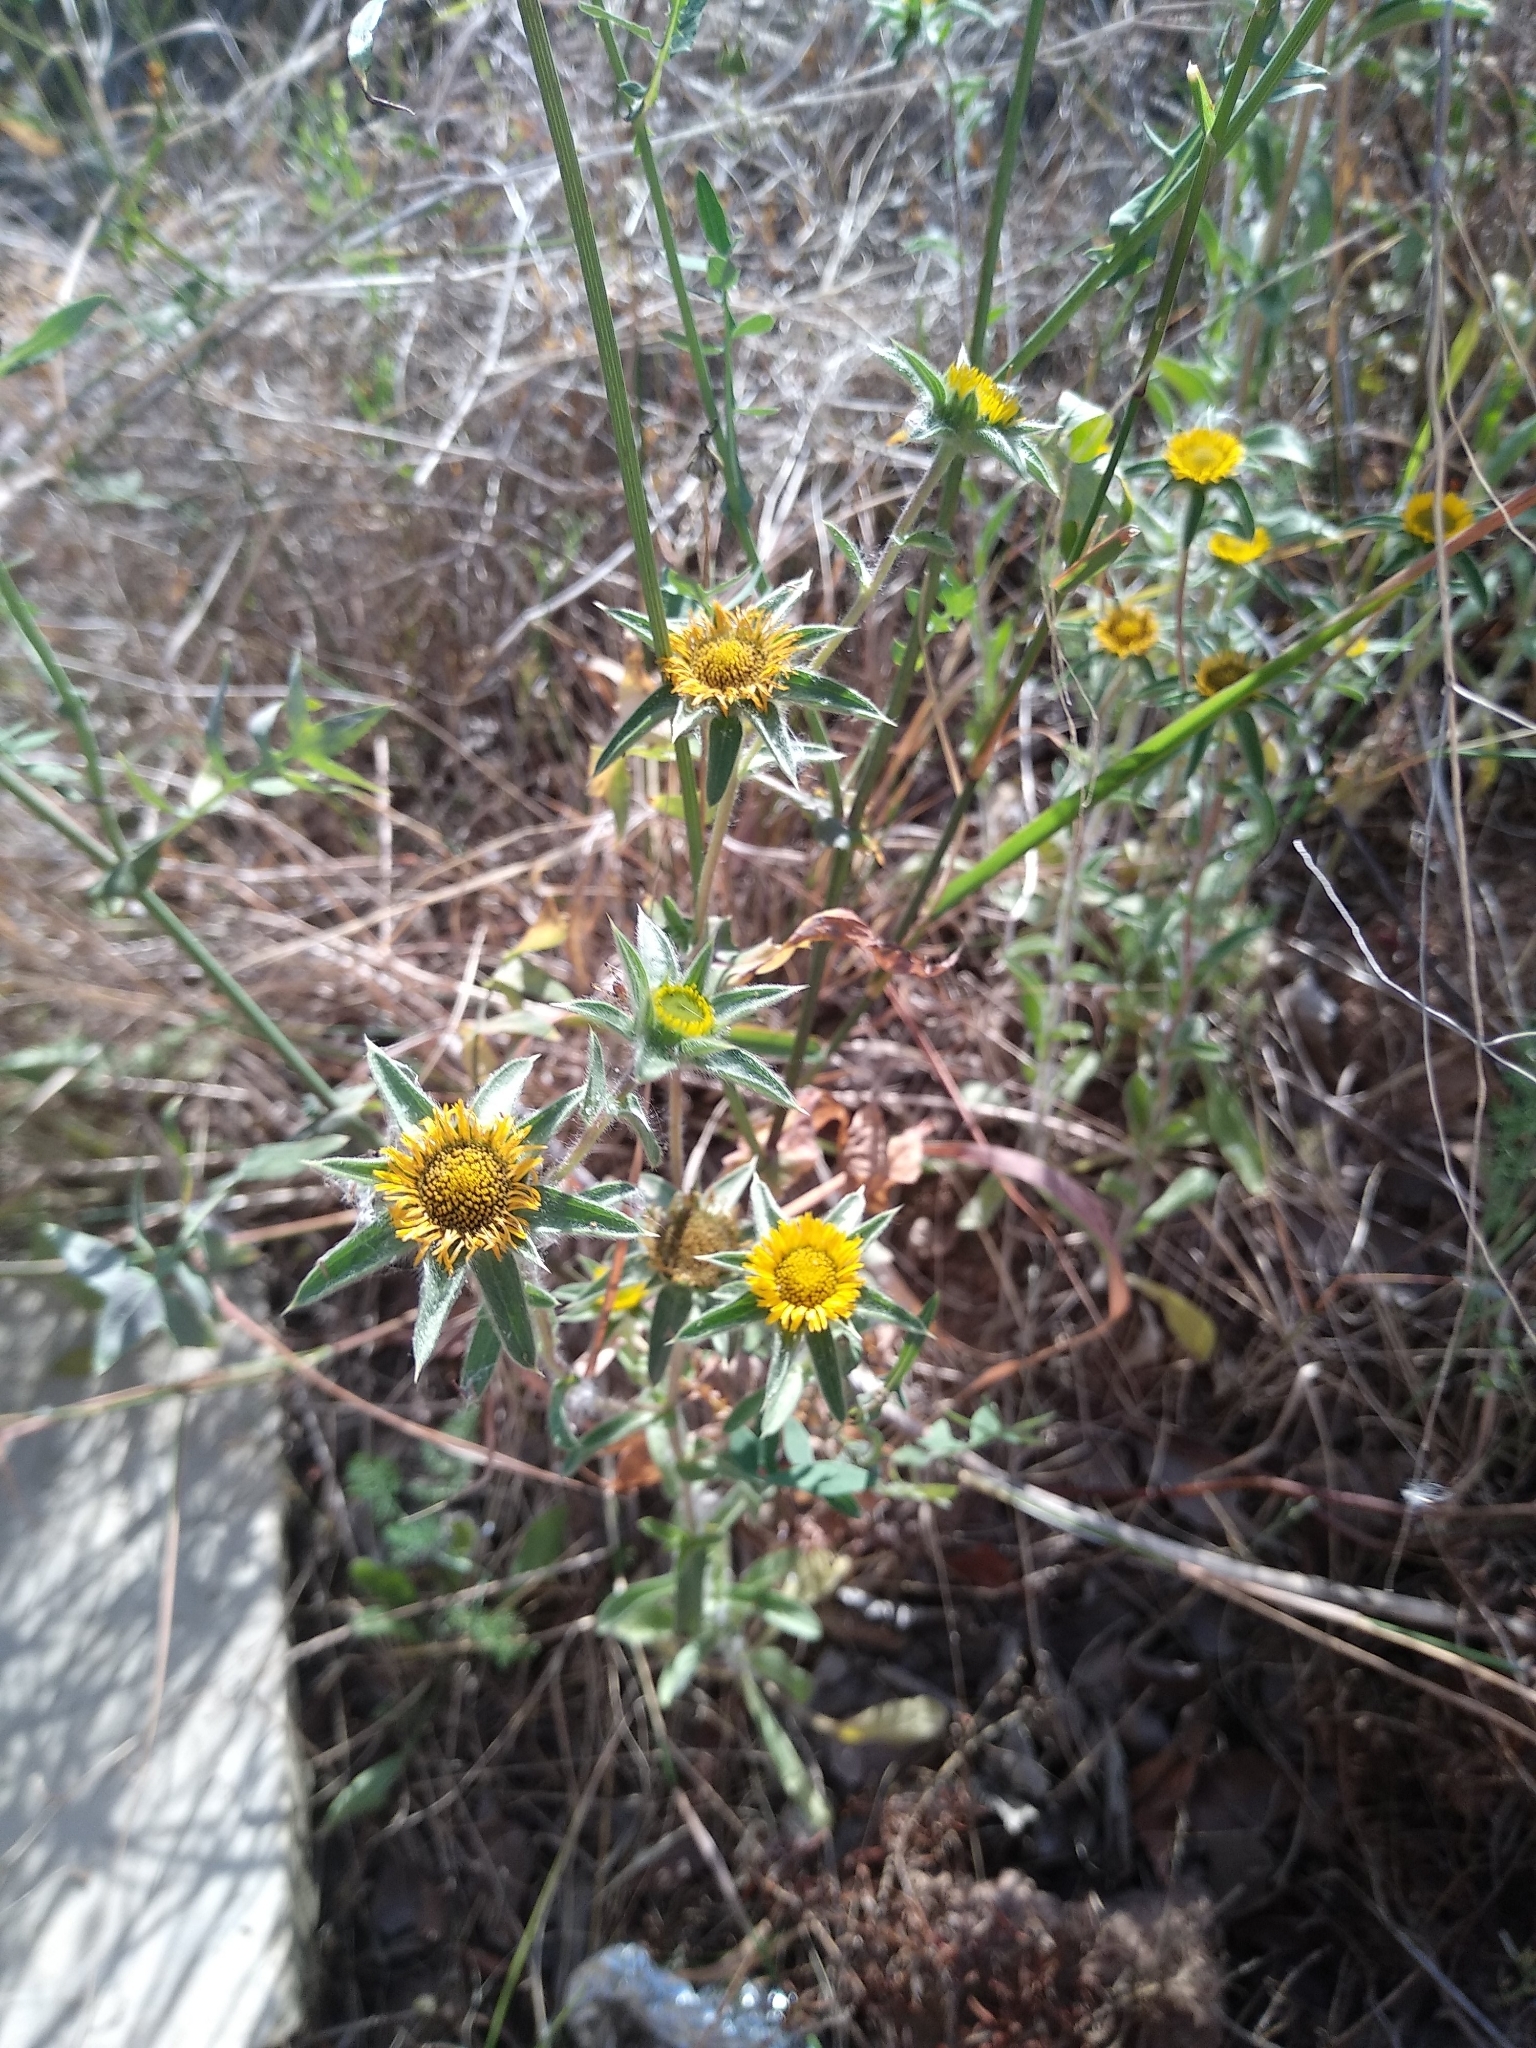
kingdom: Plantae
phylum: Tracheophyta
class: Magnoliopsida
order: Asterales
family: Asteraceae
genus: Pallenis
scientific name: Pallenis spinosa
